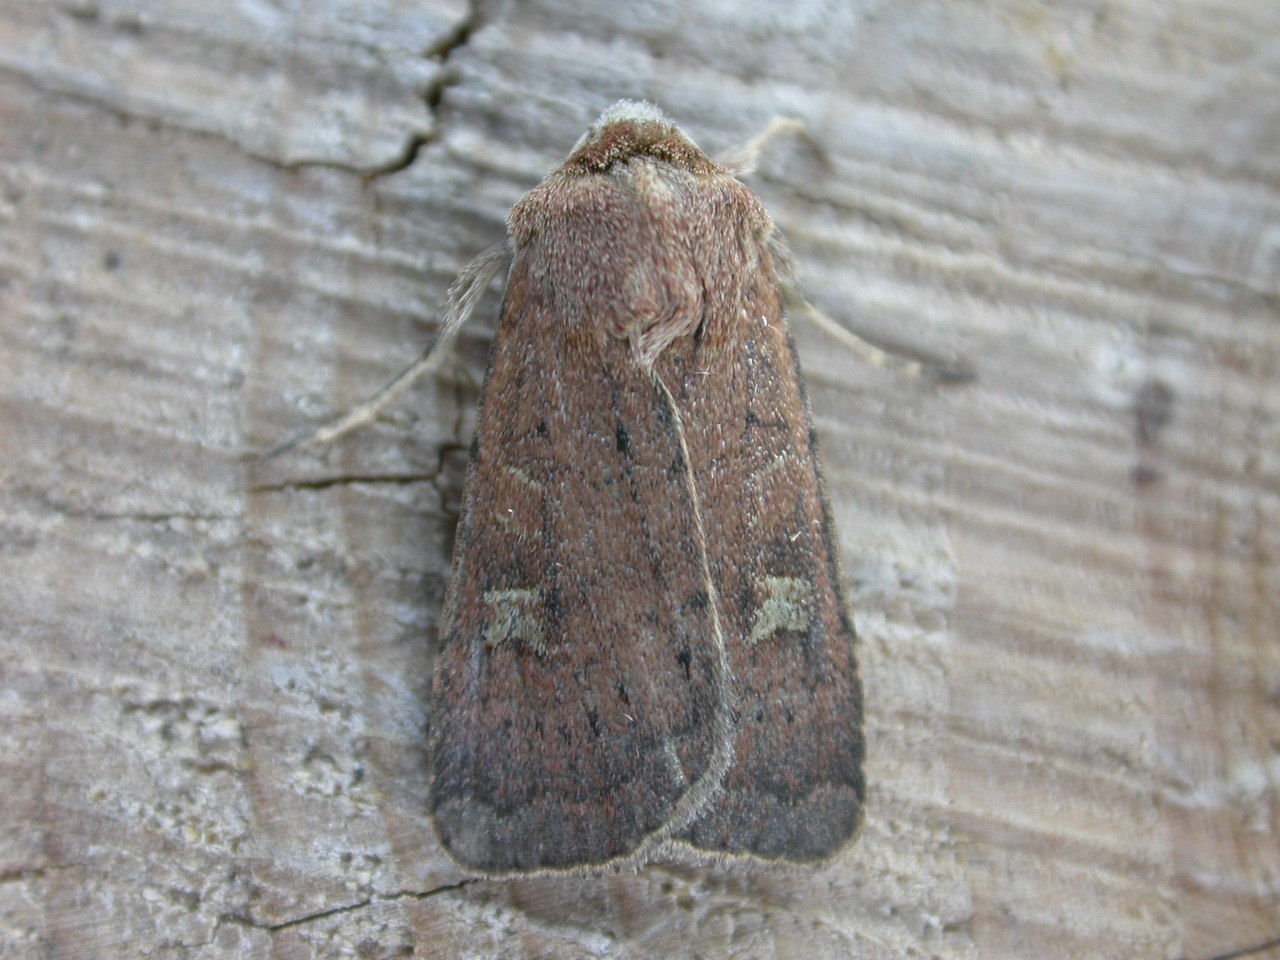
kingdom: Animalia
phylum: Arthropoda
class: Insecta
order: Lepidoptera
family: Noctuidae
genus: Xestia
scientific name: Xestia xanthographa
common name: Square-spot rustic
